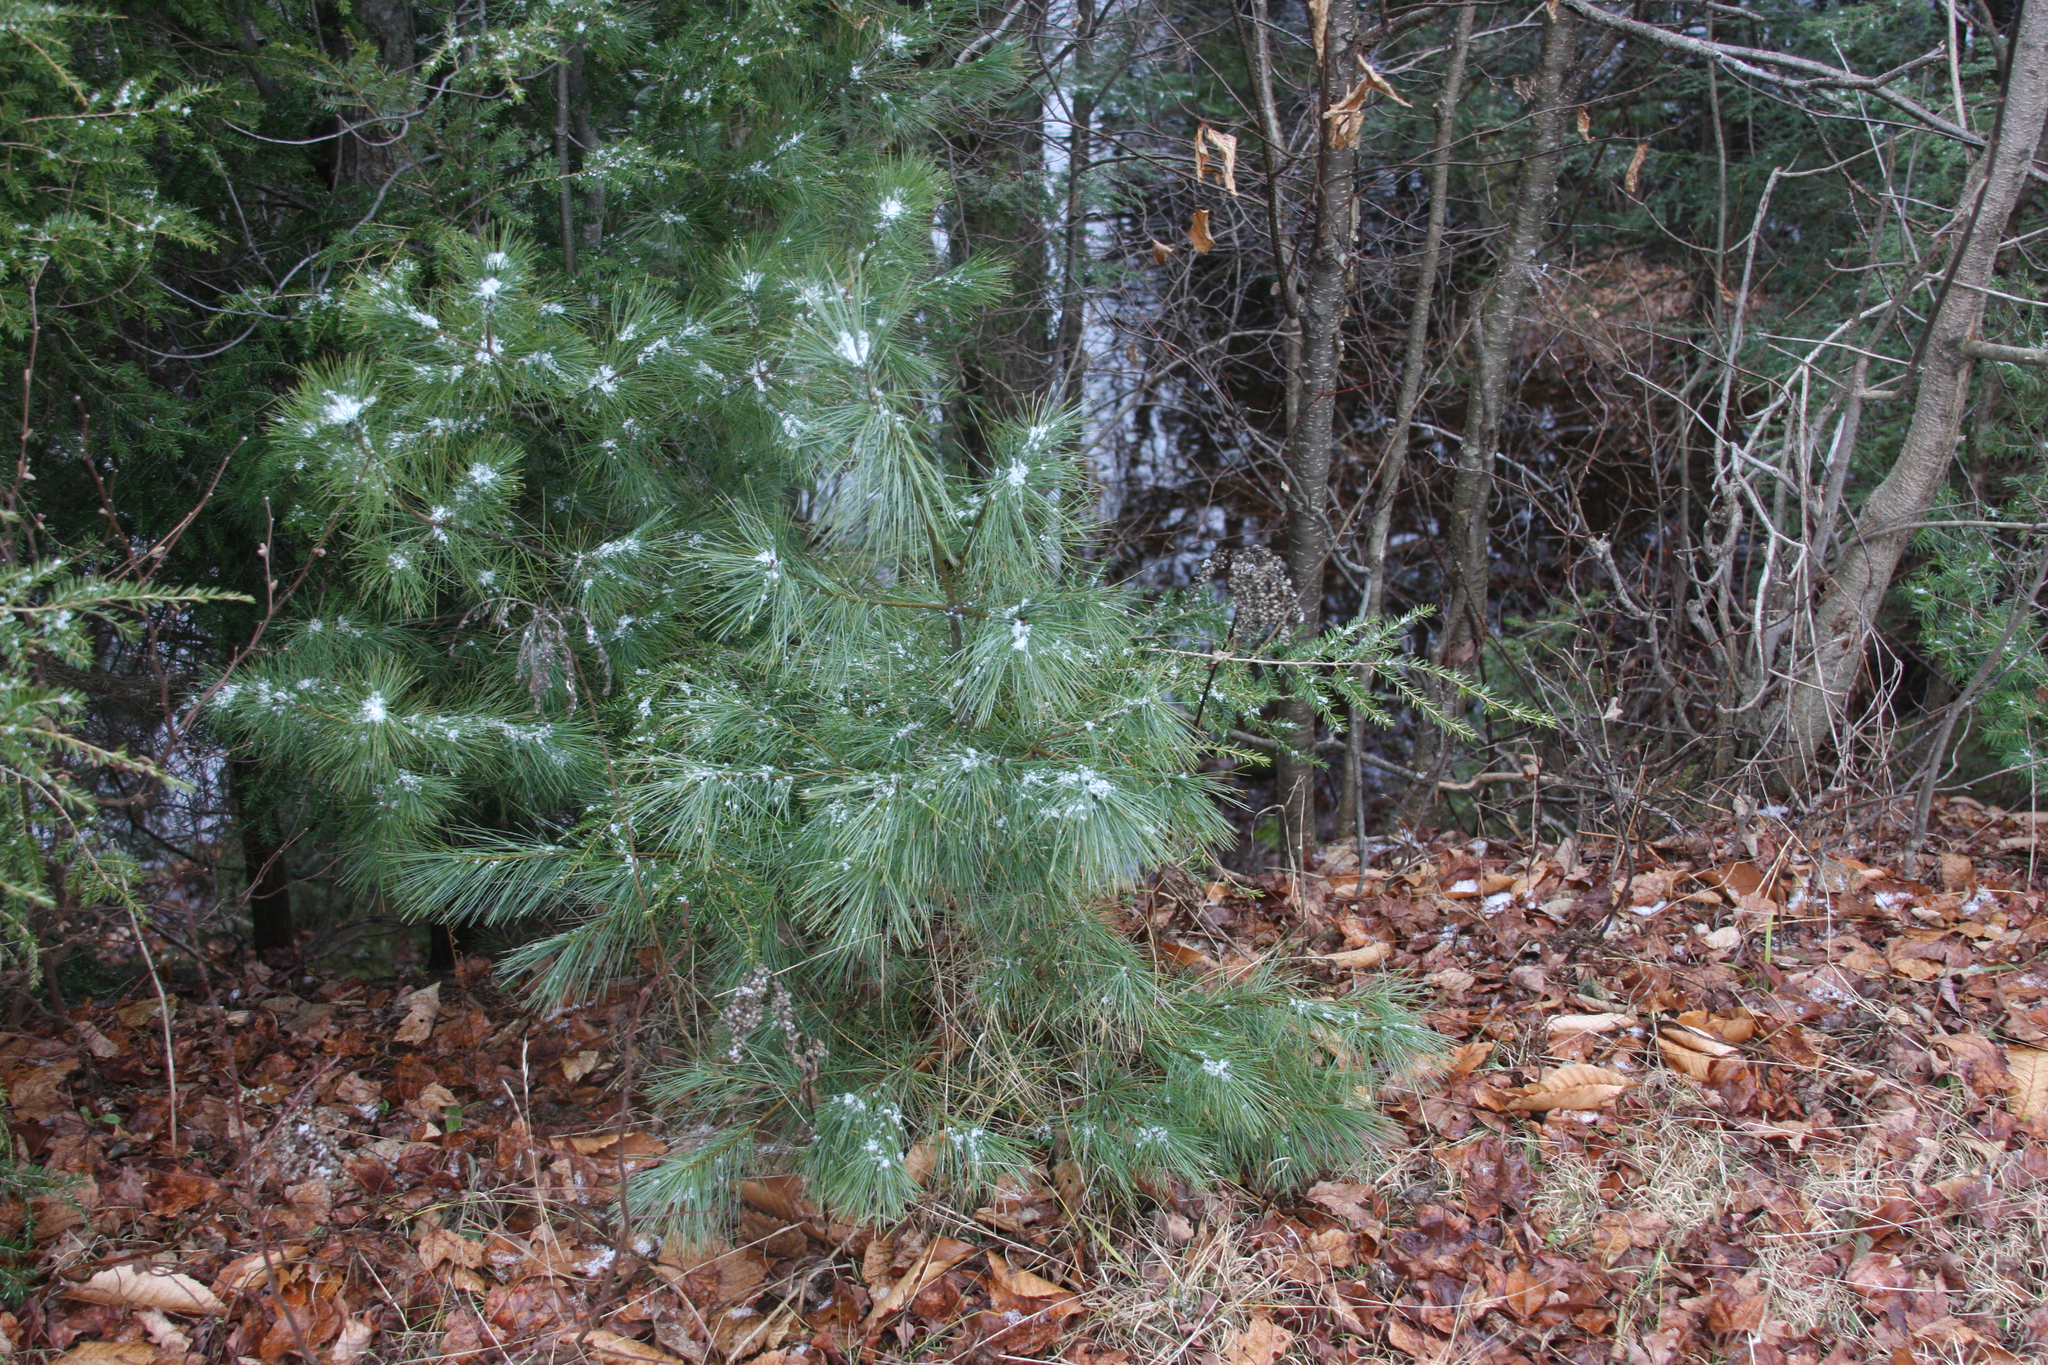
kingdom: Plantae
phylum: Tracheophyta
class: Pinopsida
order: Pinales
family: Pinaceae
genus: Pinus
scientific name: Pinus strobus
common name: Weymouth pine
